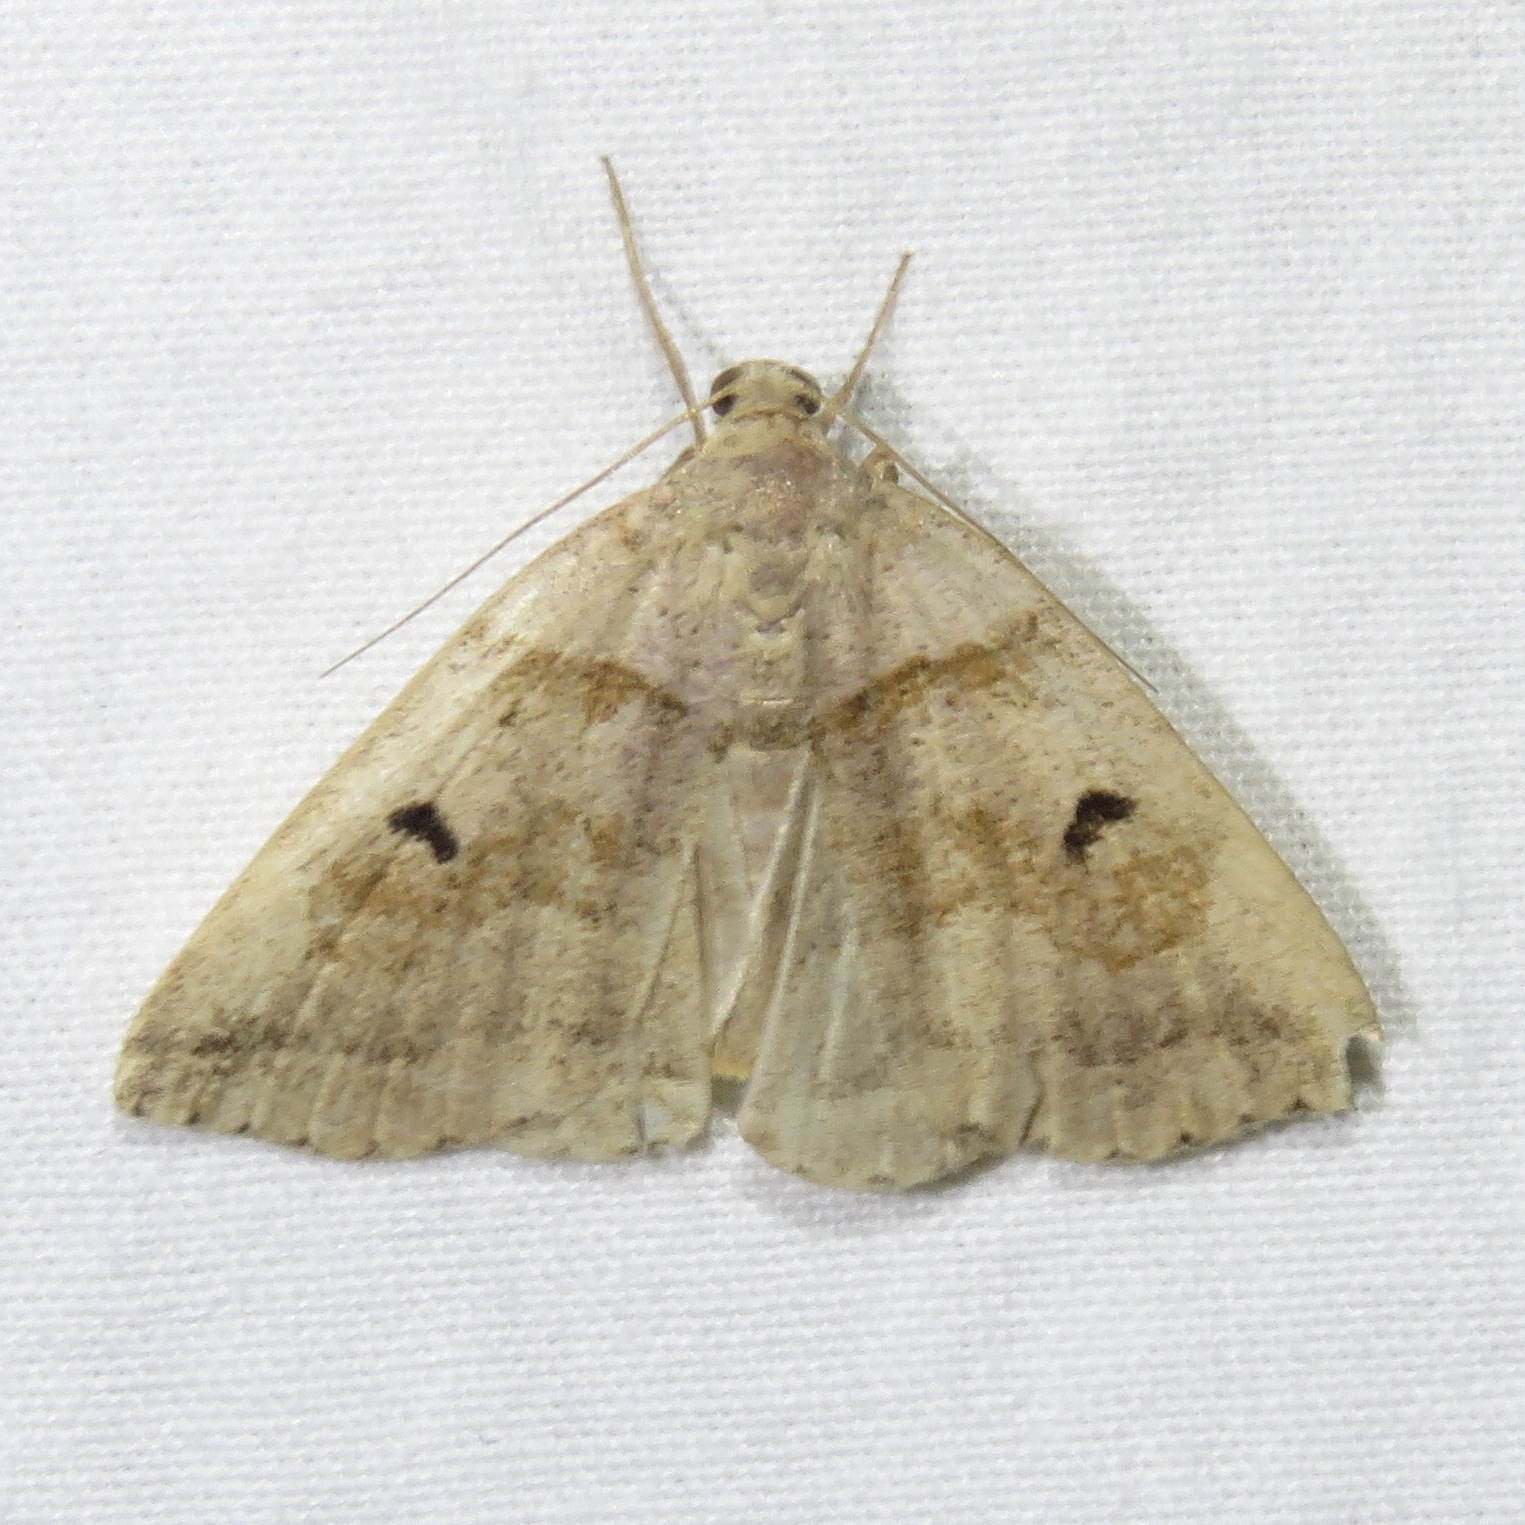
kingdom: Animalia
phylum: Arthropoda
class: Insecta
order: Lepidoptera
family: Erebidae
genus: Zanclognatha
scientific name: Zanclognatha laevigata
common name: Variable fan-foot
